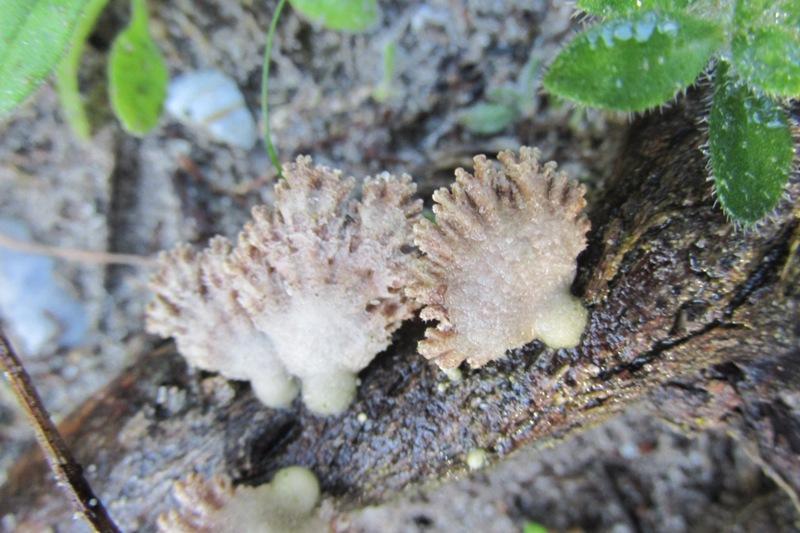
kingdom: Fungi
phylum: Basidiomycota
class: Agaricomycetes
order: Agaricales
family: Schizophyllaceae
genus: Schizophyllum
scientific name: Schizophyllum commune
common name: Common porecrust
